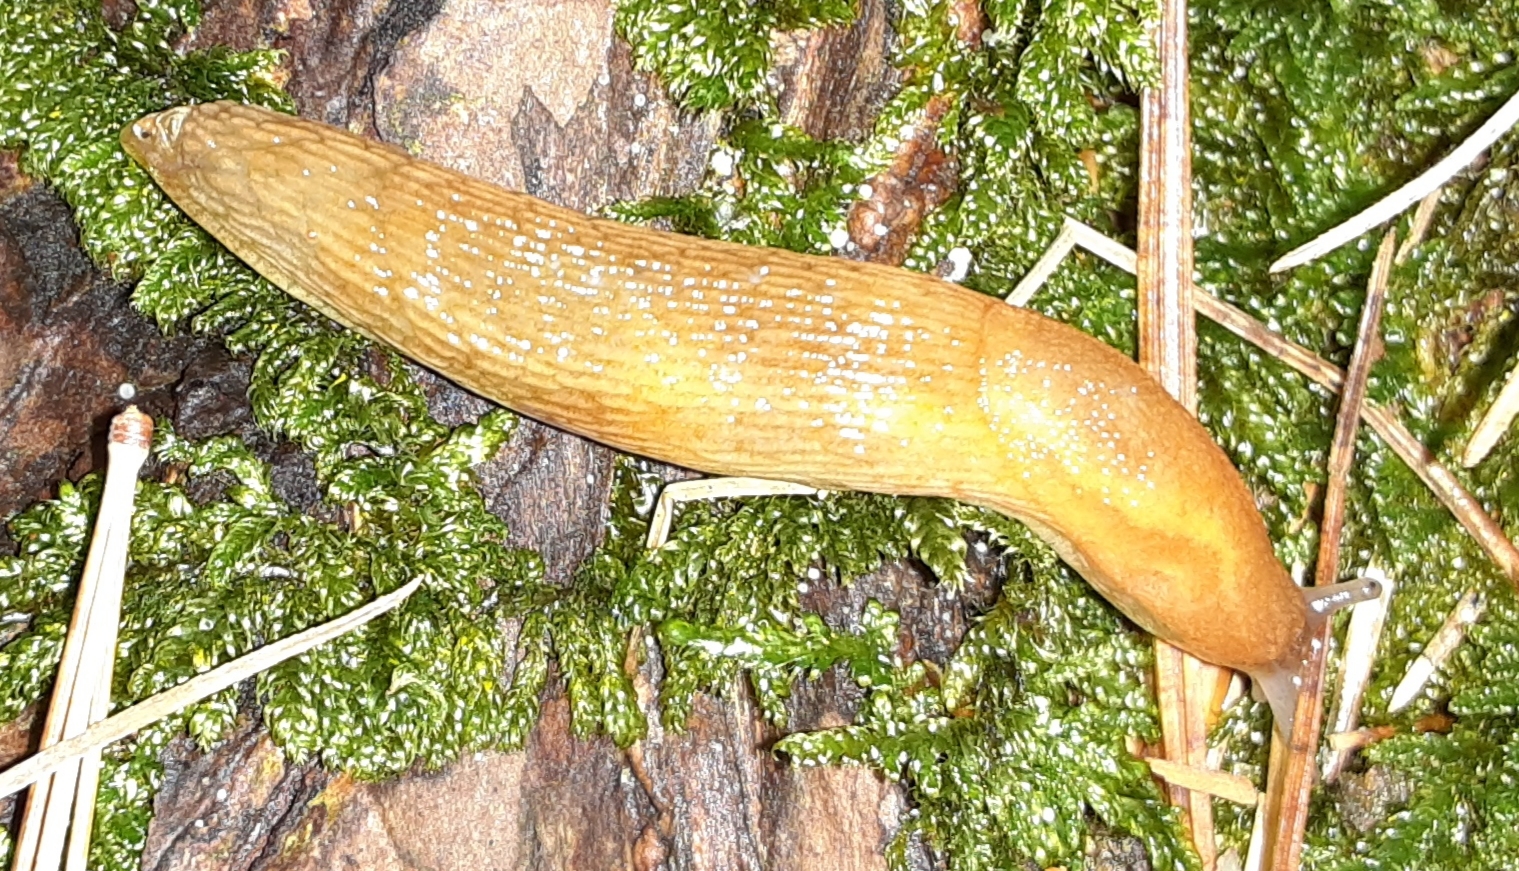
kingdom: Animalia
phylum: Mollusca
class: Gastropoda
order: Stylommatophora
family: Arionidae
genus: Arion
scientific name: Arion subfuscus
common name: Dusky arion
